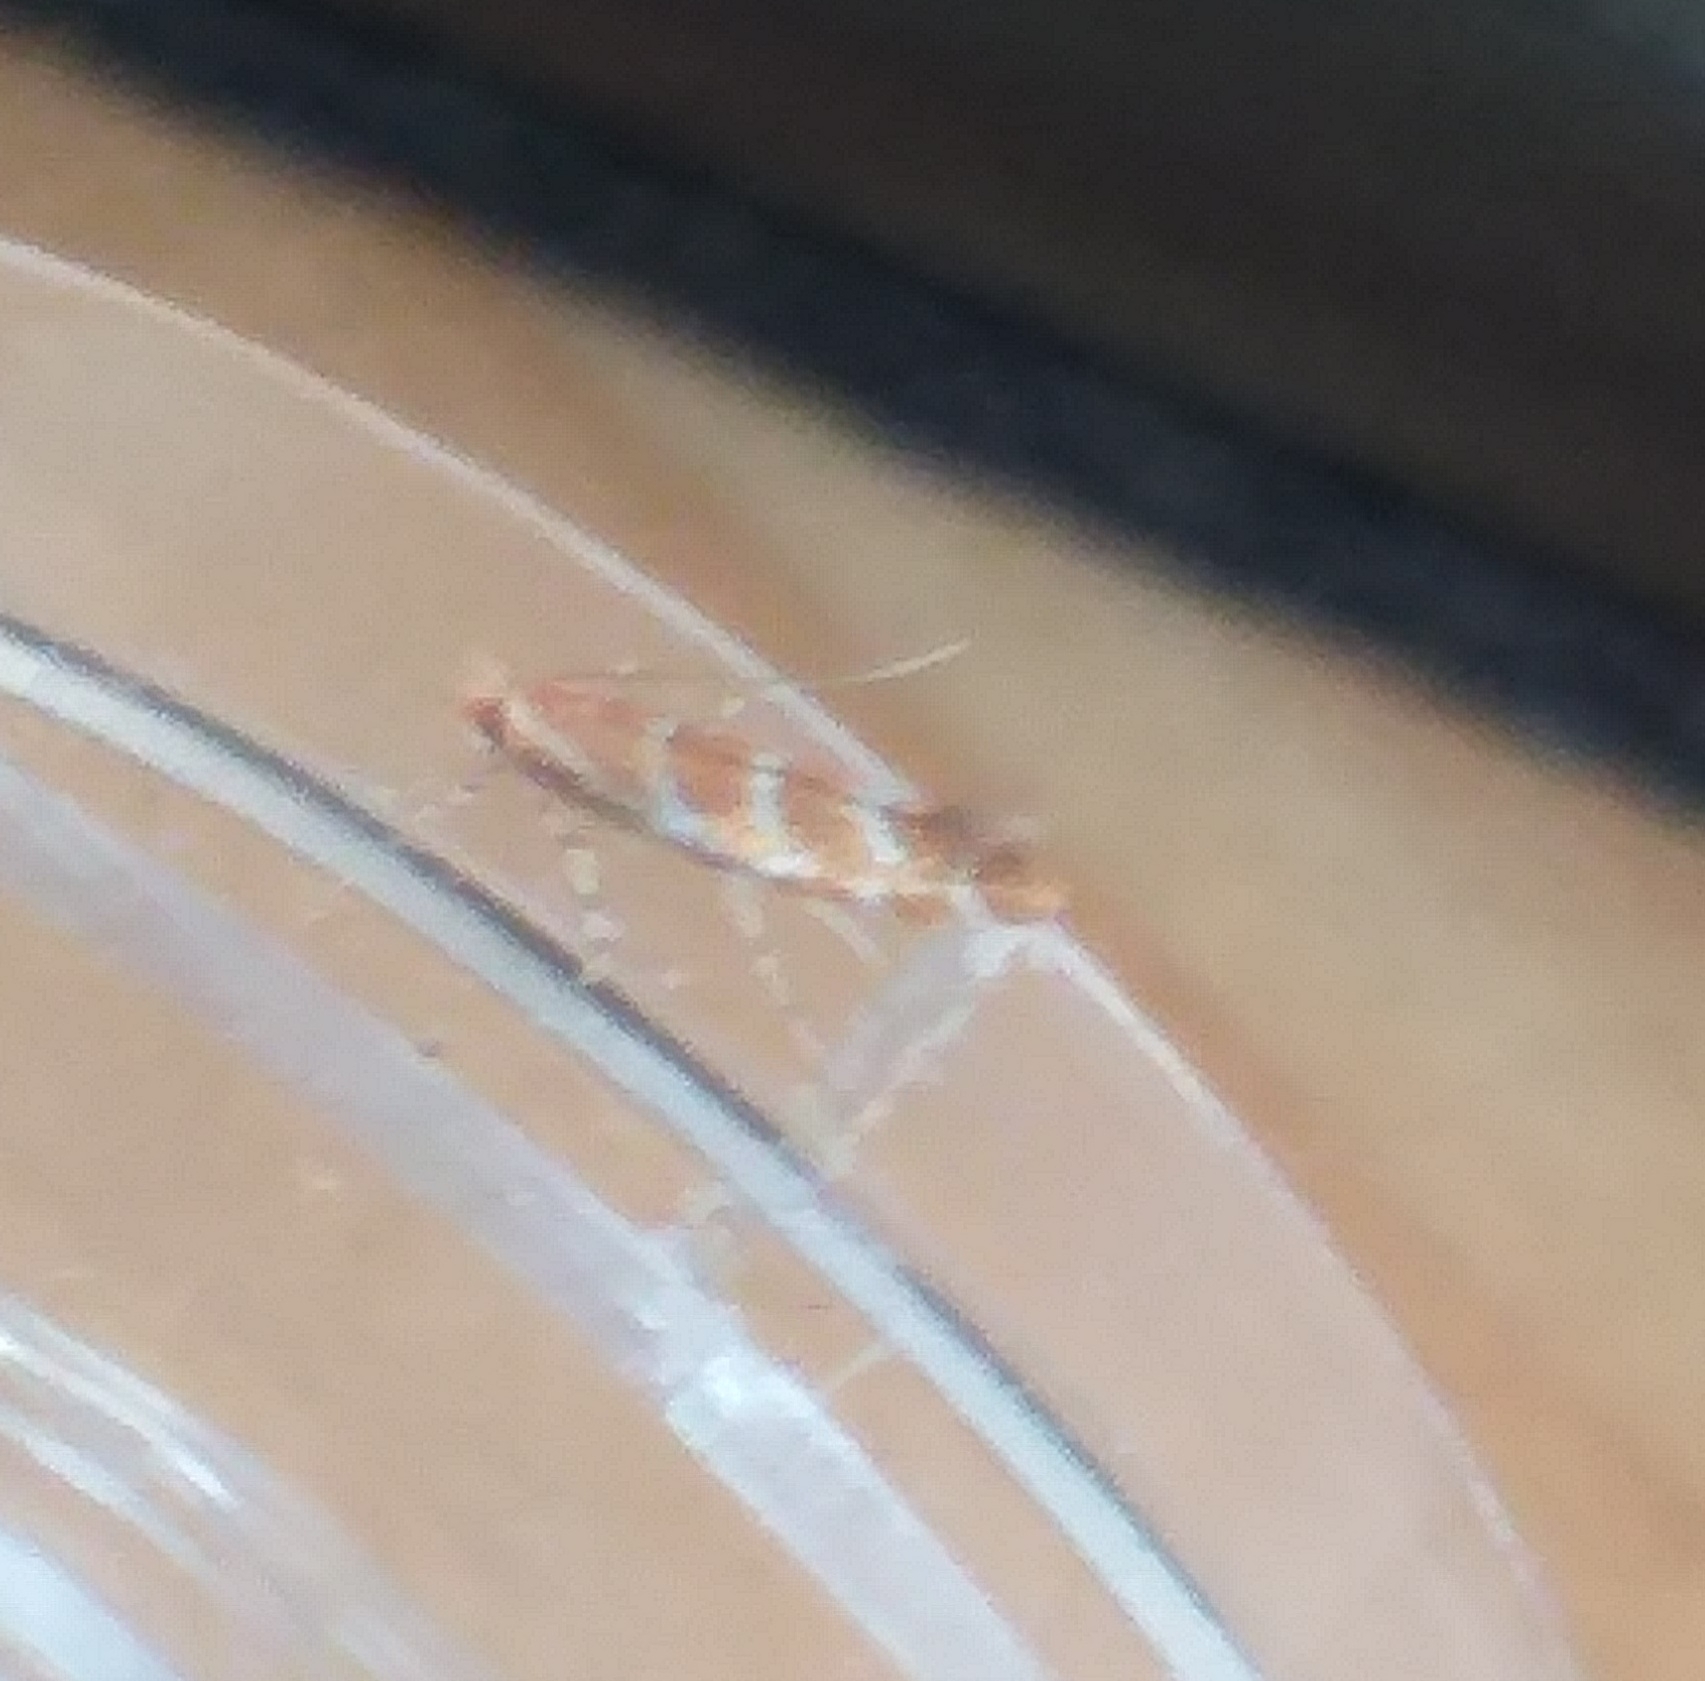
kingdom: Animalia
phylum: Arthropoda
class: Insecta
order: Lepidoptera
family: Gracillariidae
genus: Cameraria
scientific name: Cameraria ohridella
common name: Horse-chestnut leaf-miner
